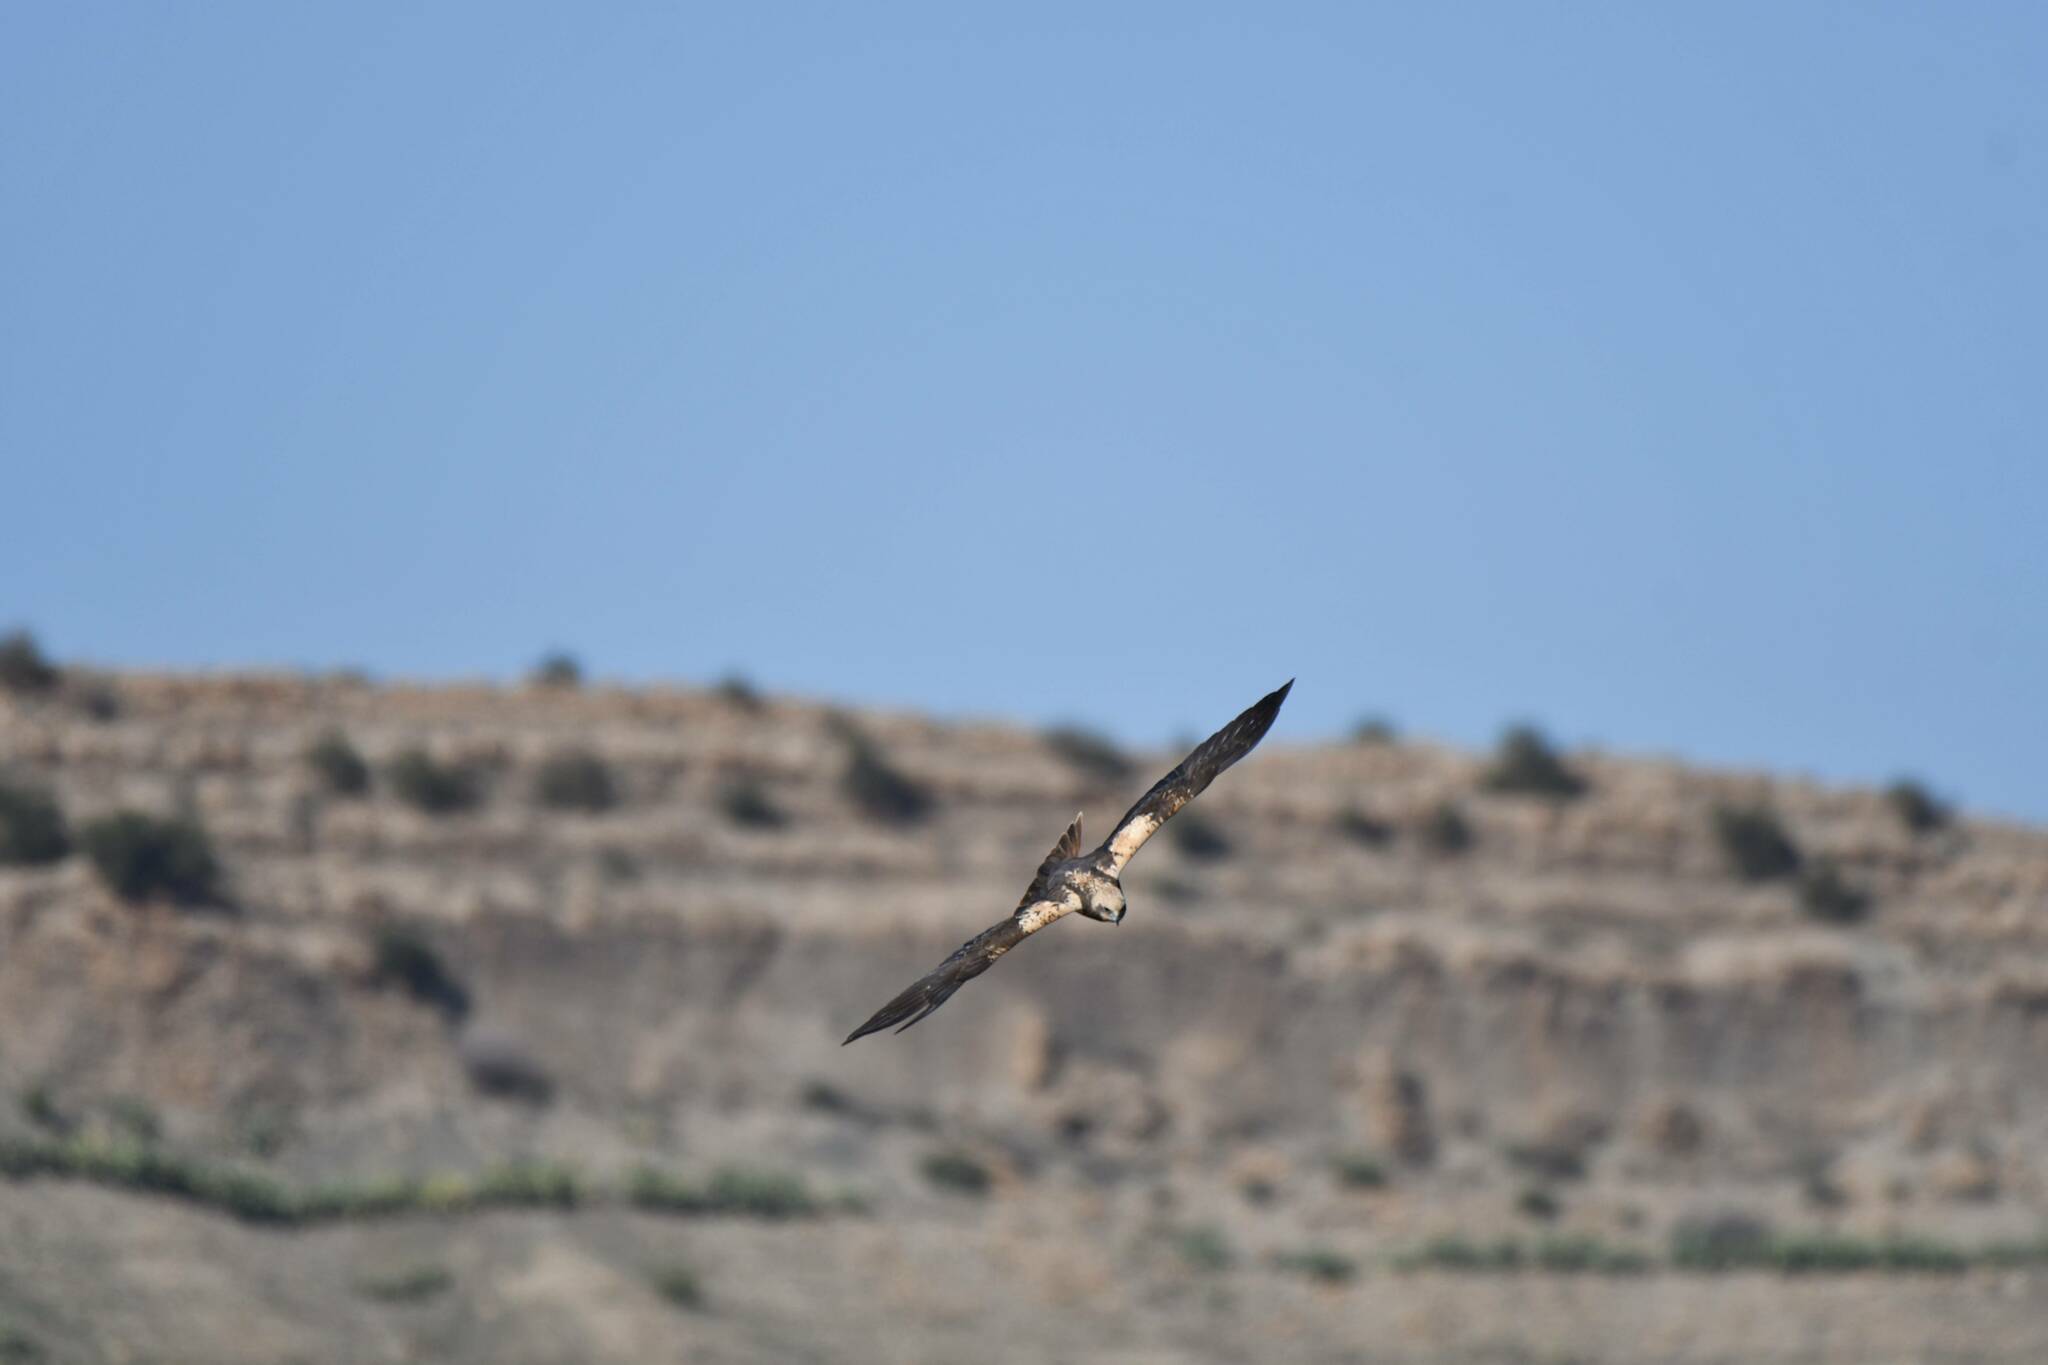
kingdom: Animalia
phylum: Chordata
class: Aves
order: Accipitriformes
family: Accipitridae
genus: Circus
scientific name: Circus aeruginosus
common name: Western marsh harrier
